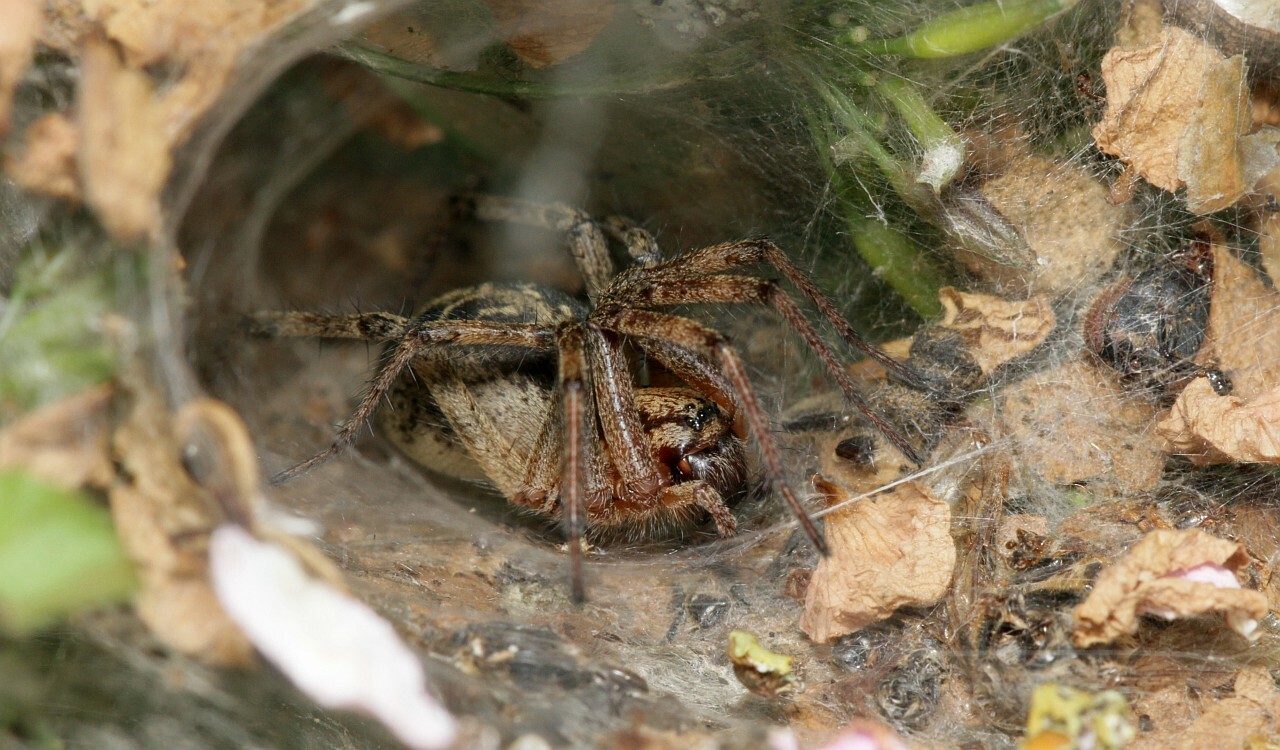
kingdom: Animalia
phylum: Arthropoda
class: Arachnida
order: Araneae
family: Agelenidae
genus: Agelena
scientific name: Agelena labyrinthica
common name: Labyrinth spider
